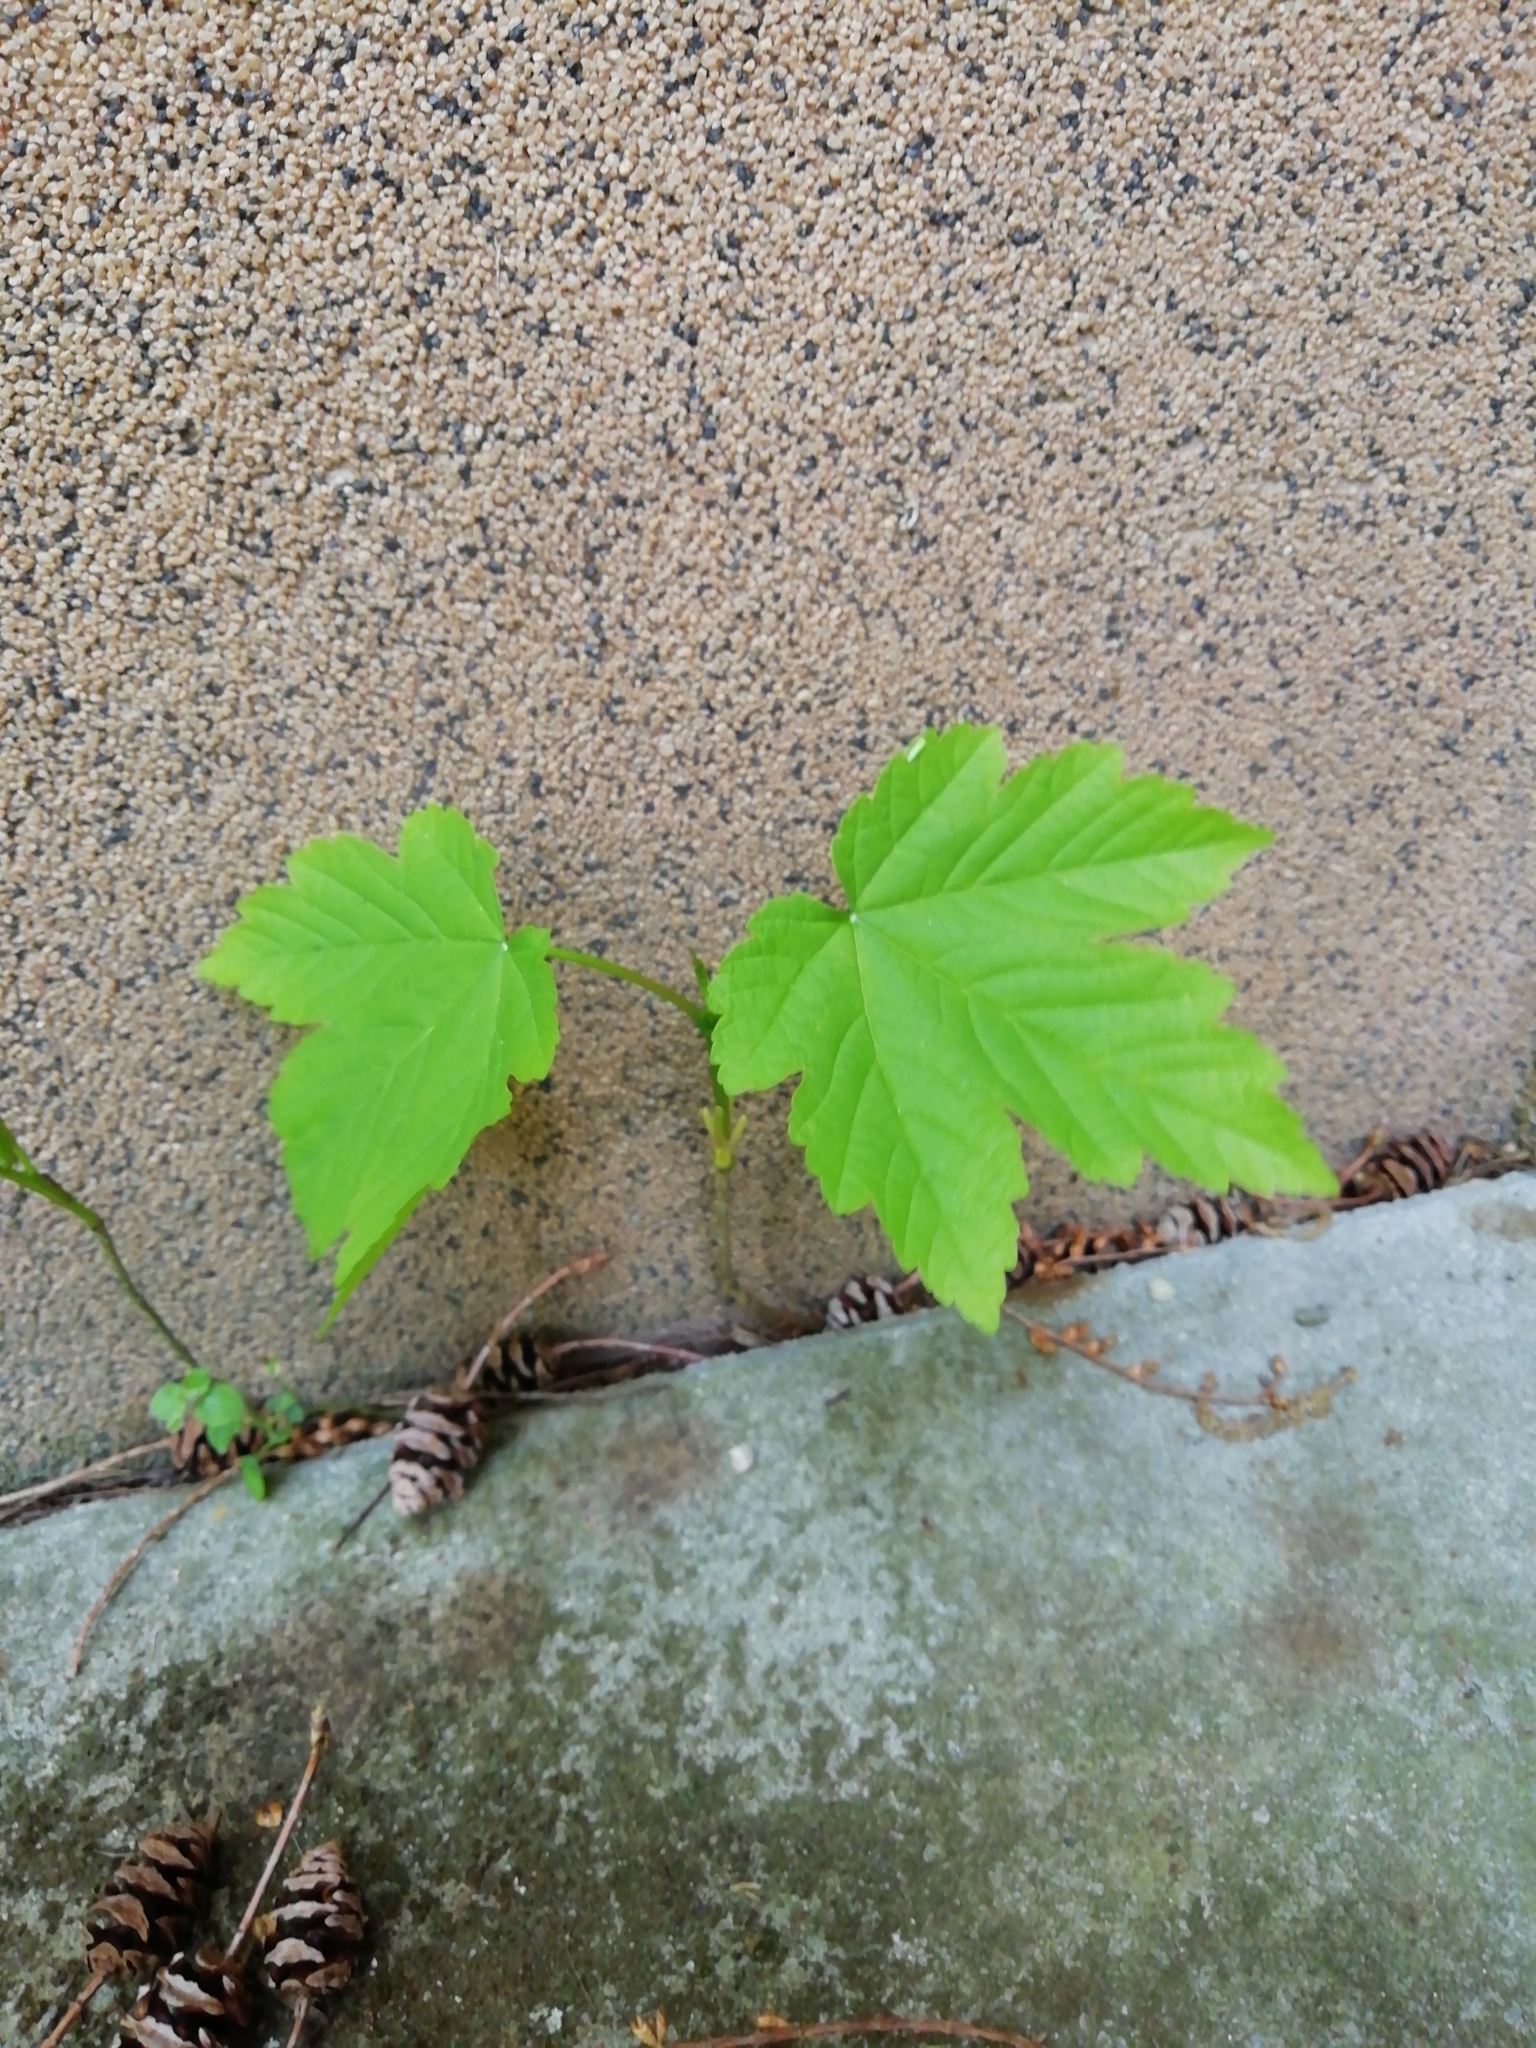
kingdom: Plantae
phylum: Tracheophyta
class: Magnoliopsida
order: Sapindales
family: Sapindaceae
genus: Acer
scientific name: Acer pseudoplatanus
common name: Sycamore
